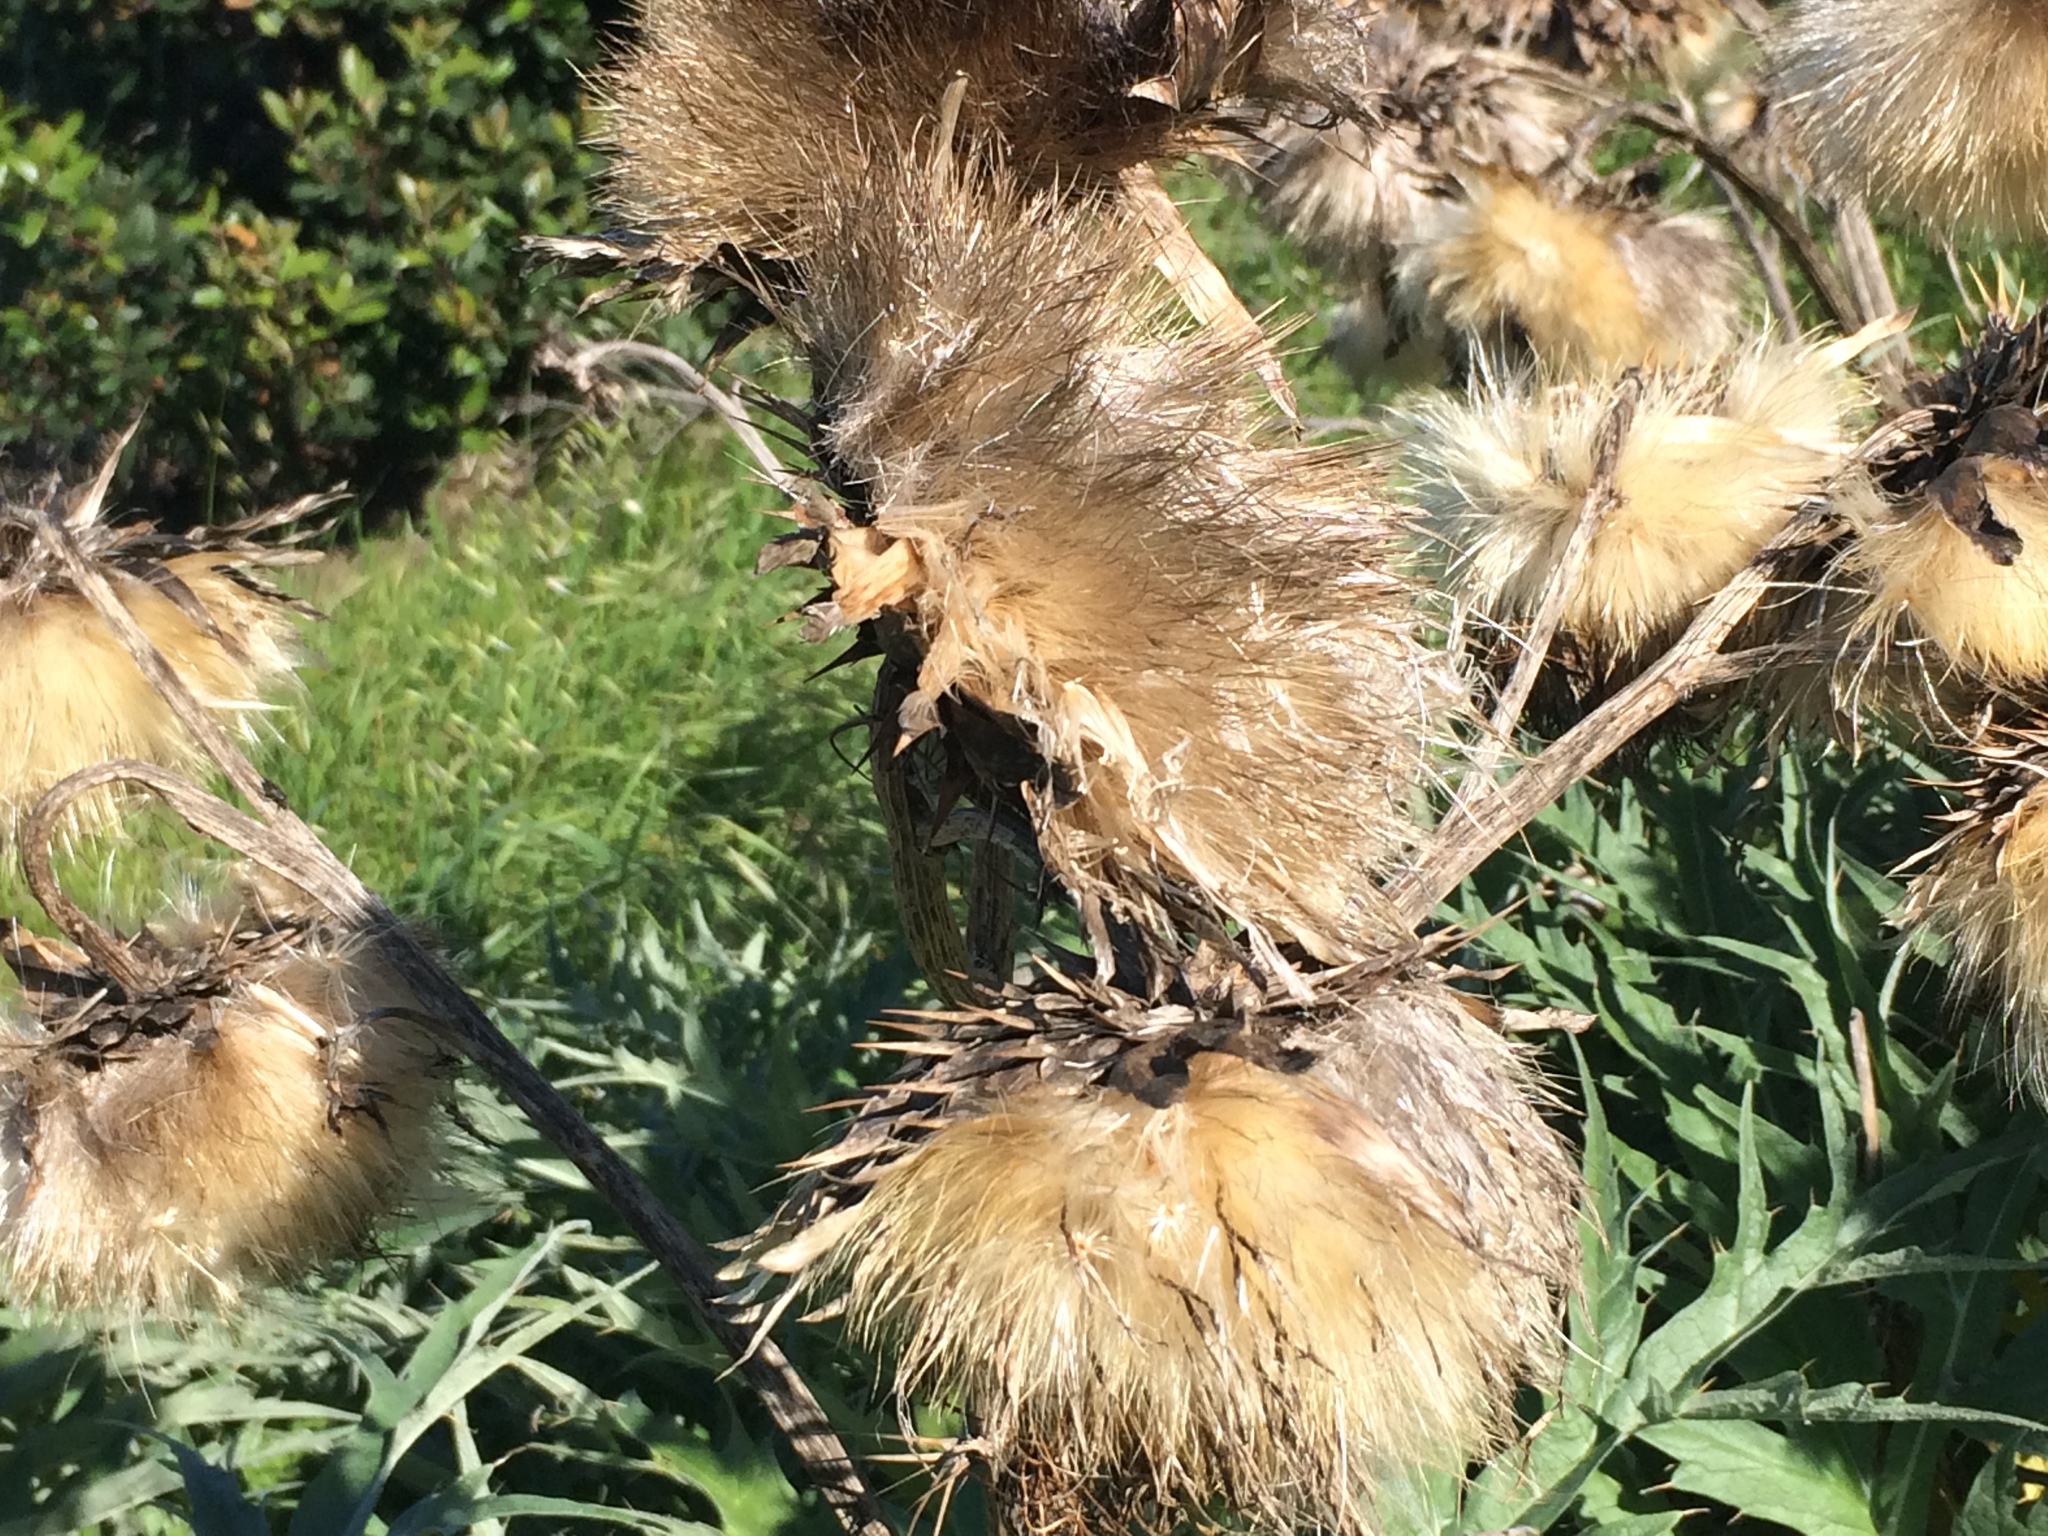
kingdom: Plantae
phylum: Tracheophyta
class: Magnoliopsida
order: Asterales
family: Asteraceae
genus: Cynara
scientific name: Cynara cardunculus
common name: Globe artichoke
